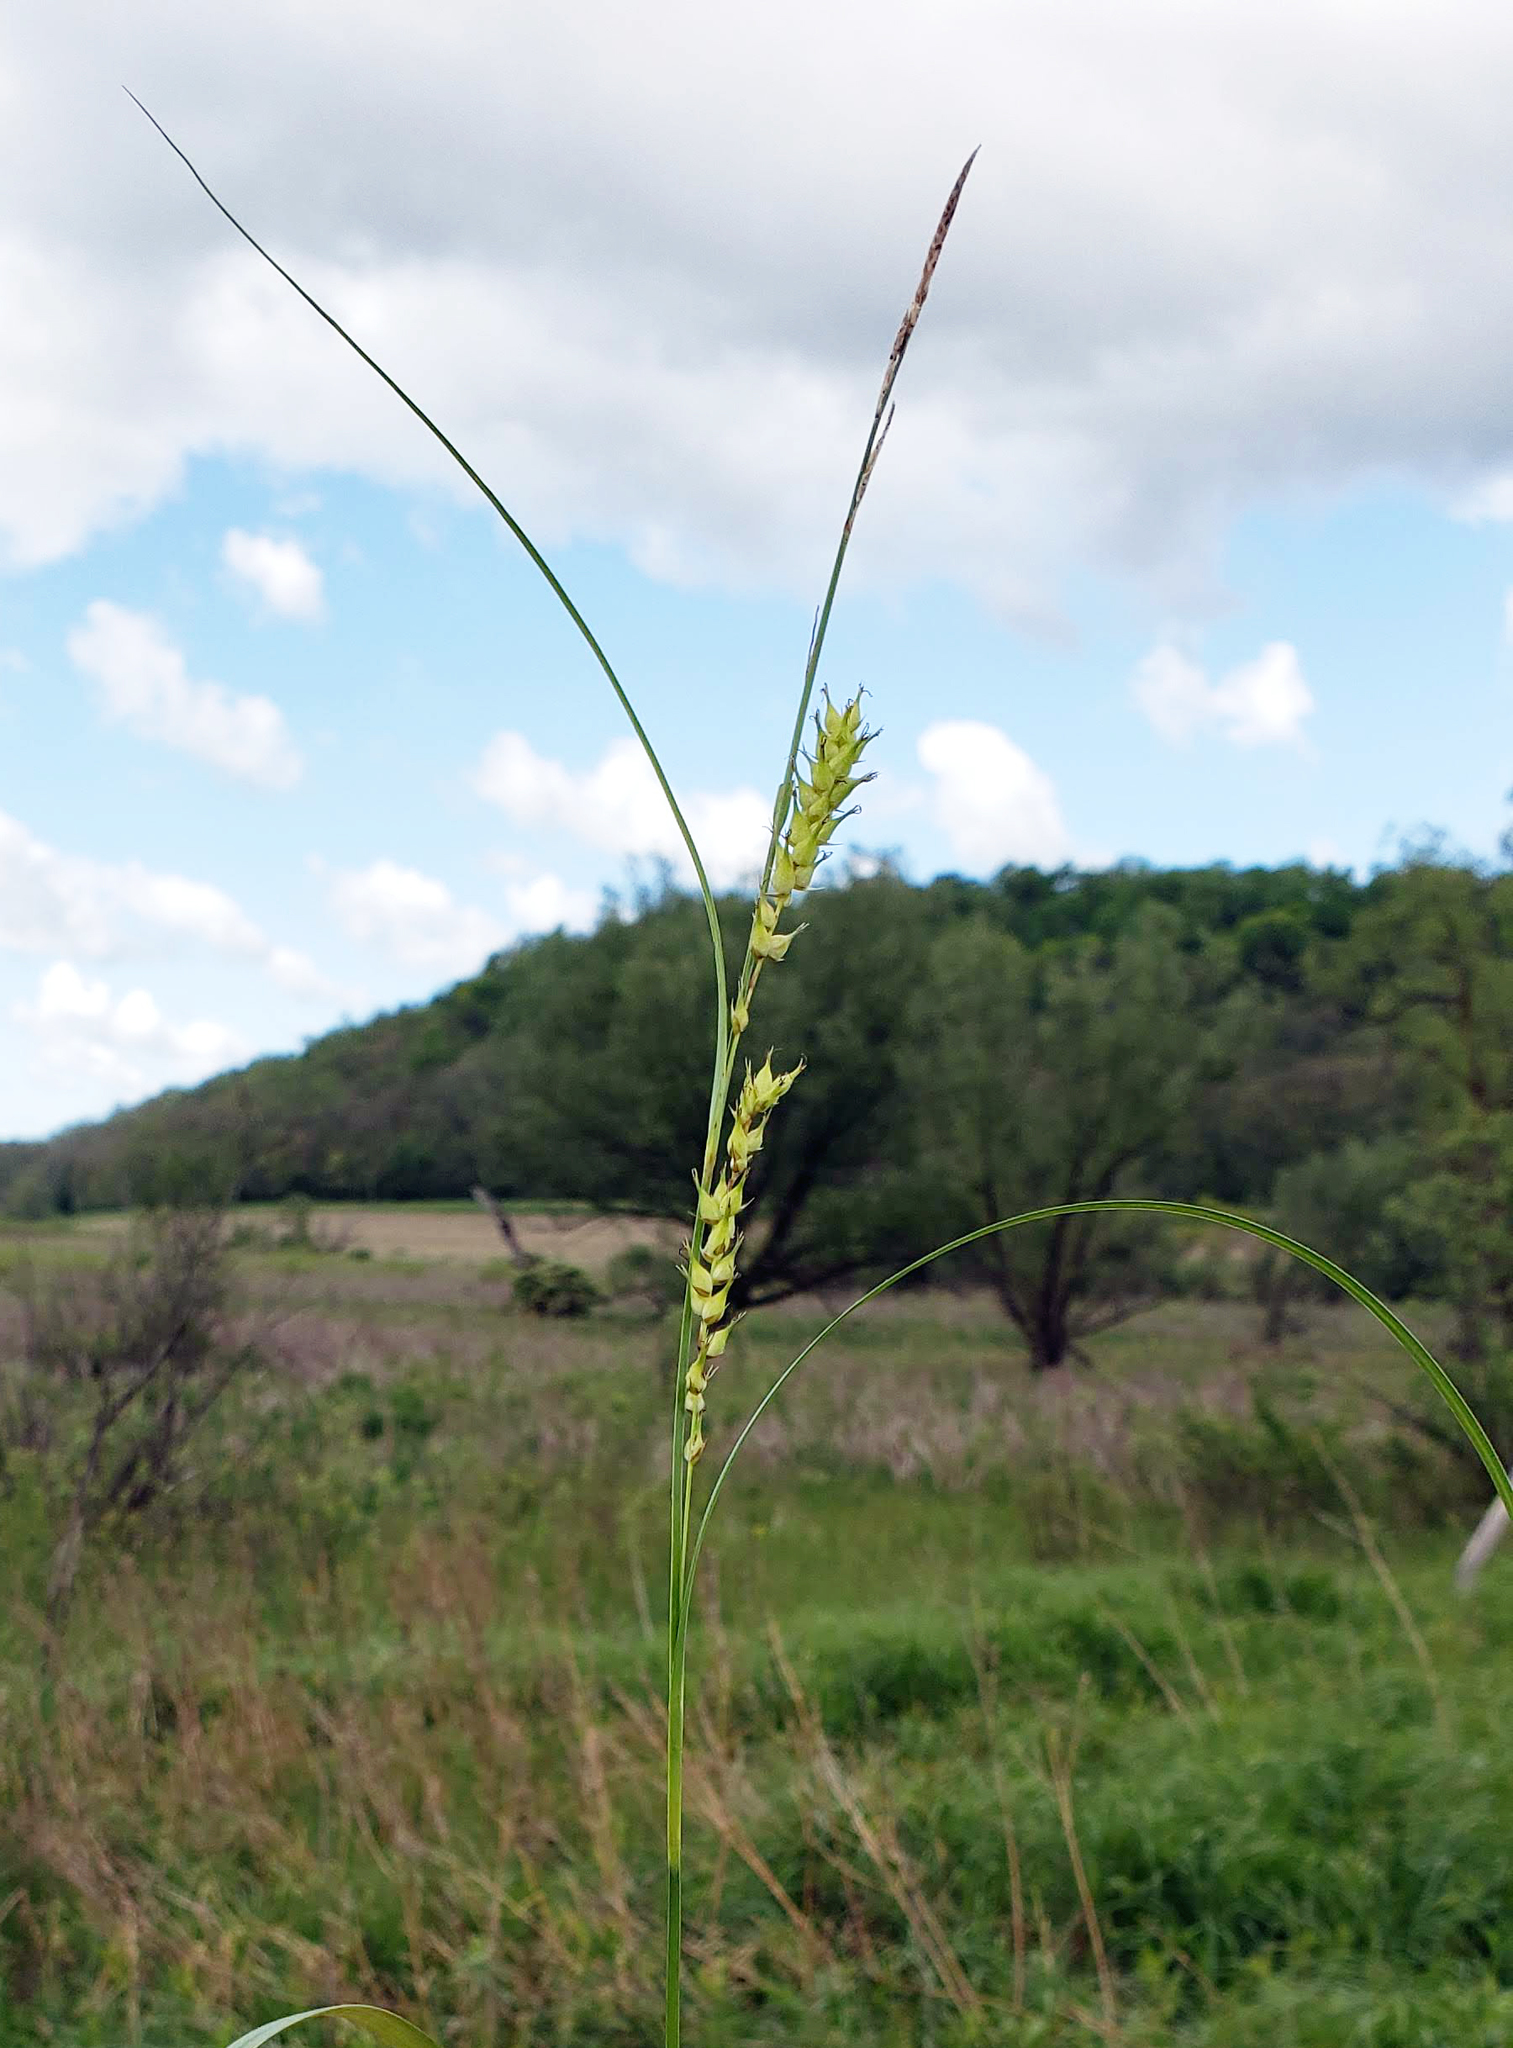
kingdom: Plantae
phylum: Tracheophyta
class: Liliopsida
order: Poales
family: Cyperaceae
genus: Carex
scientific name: Carex trichocarpa
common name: Hairy-fruited lake sedge
